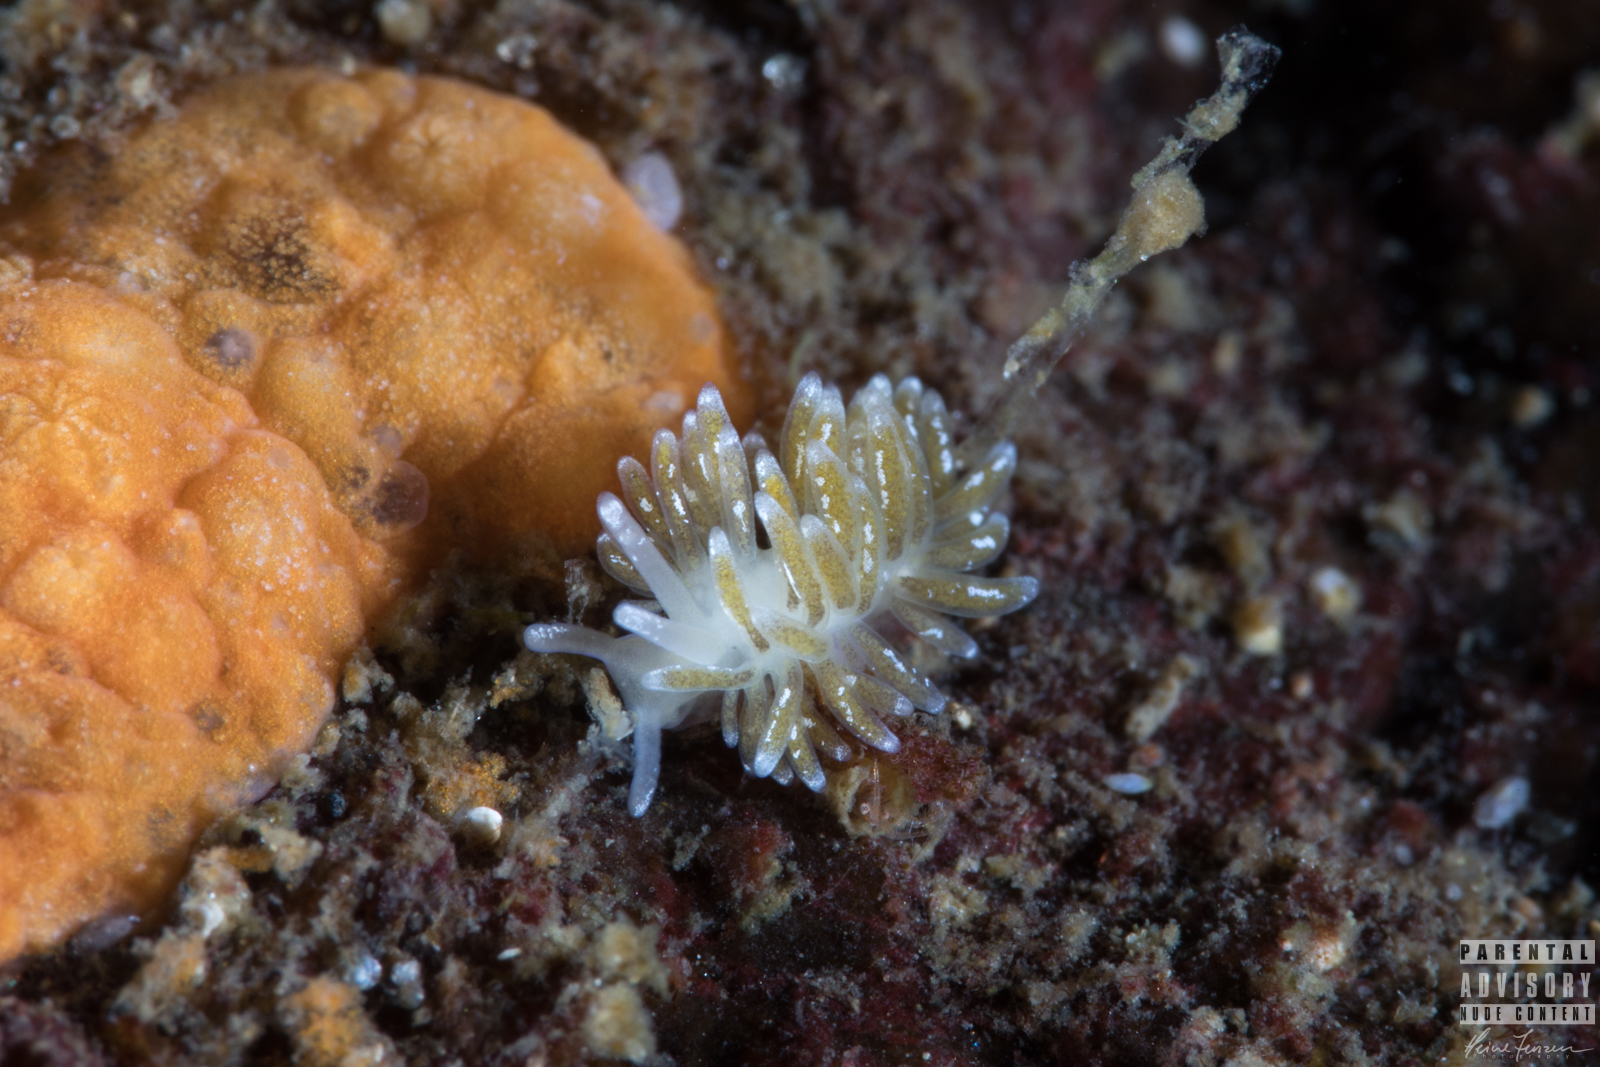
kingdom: Animalia
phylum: Mollusca
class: Gastropoda
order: Nudibranchia
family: Trinchesiidae
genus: Zelentia
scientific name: Zelentia pustulata
